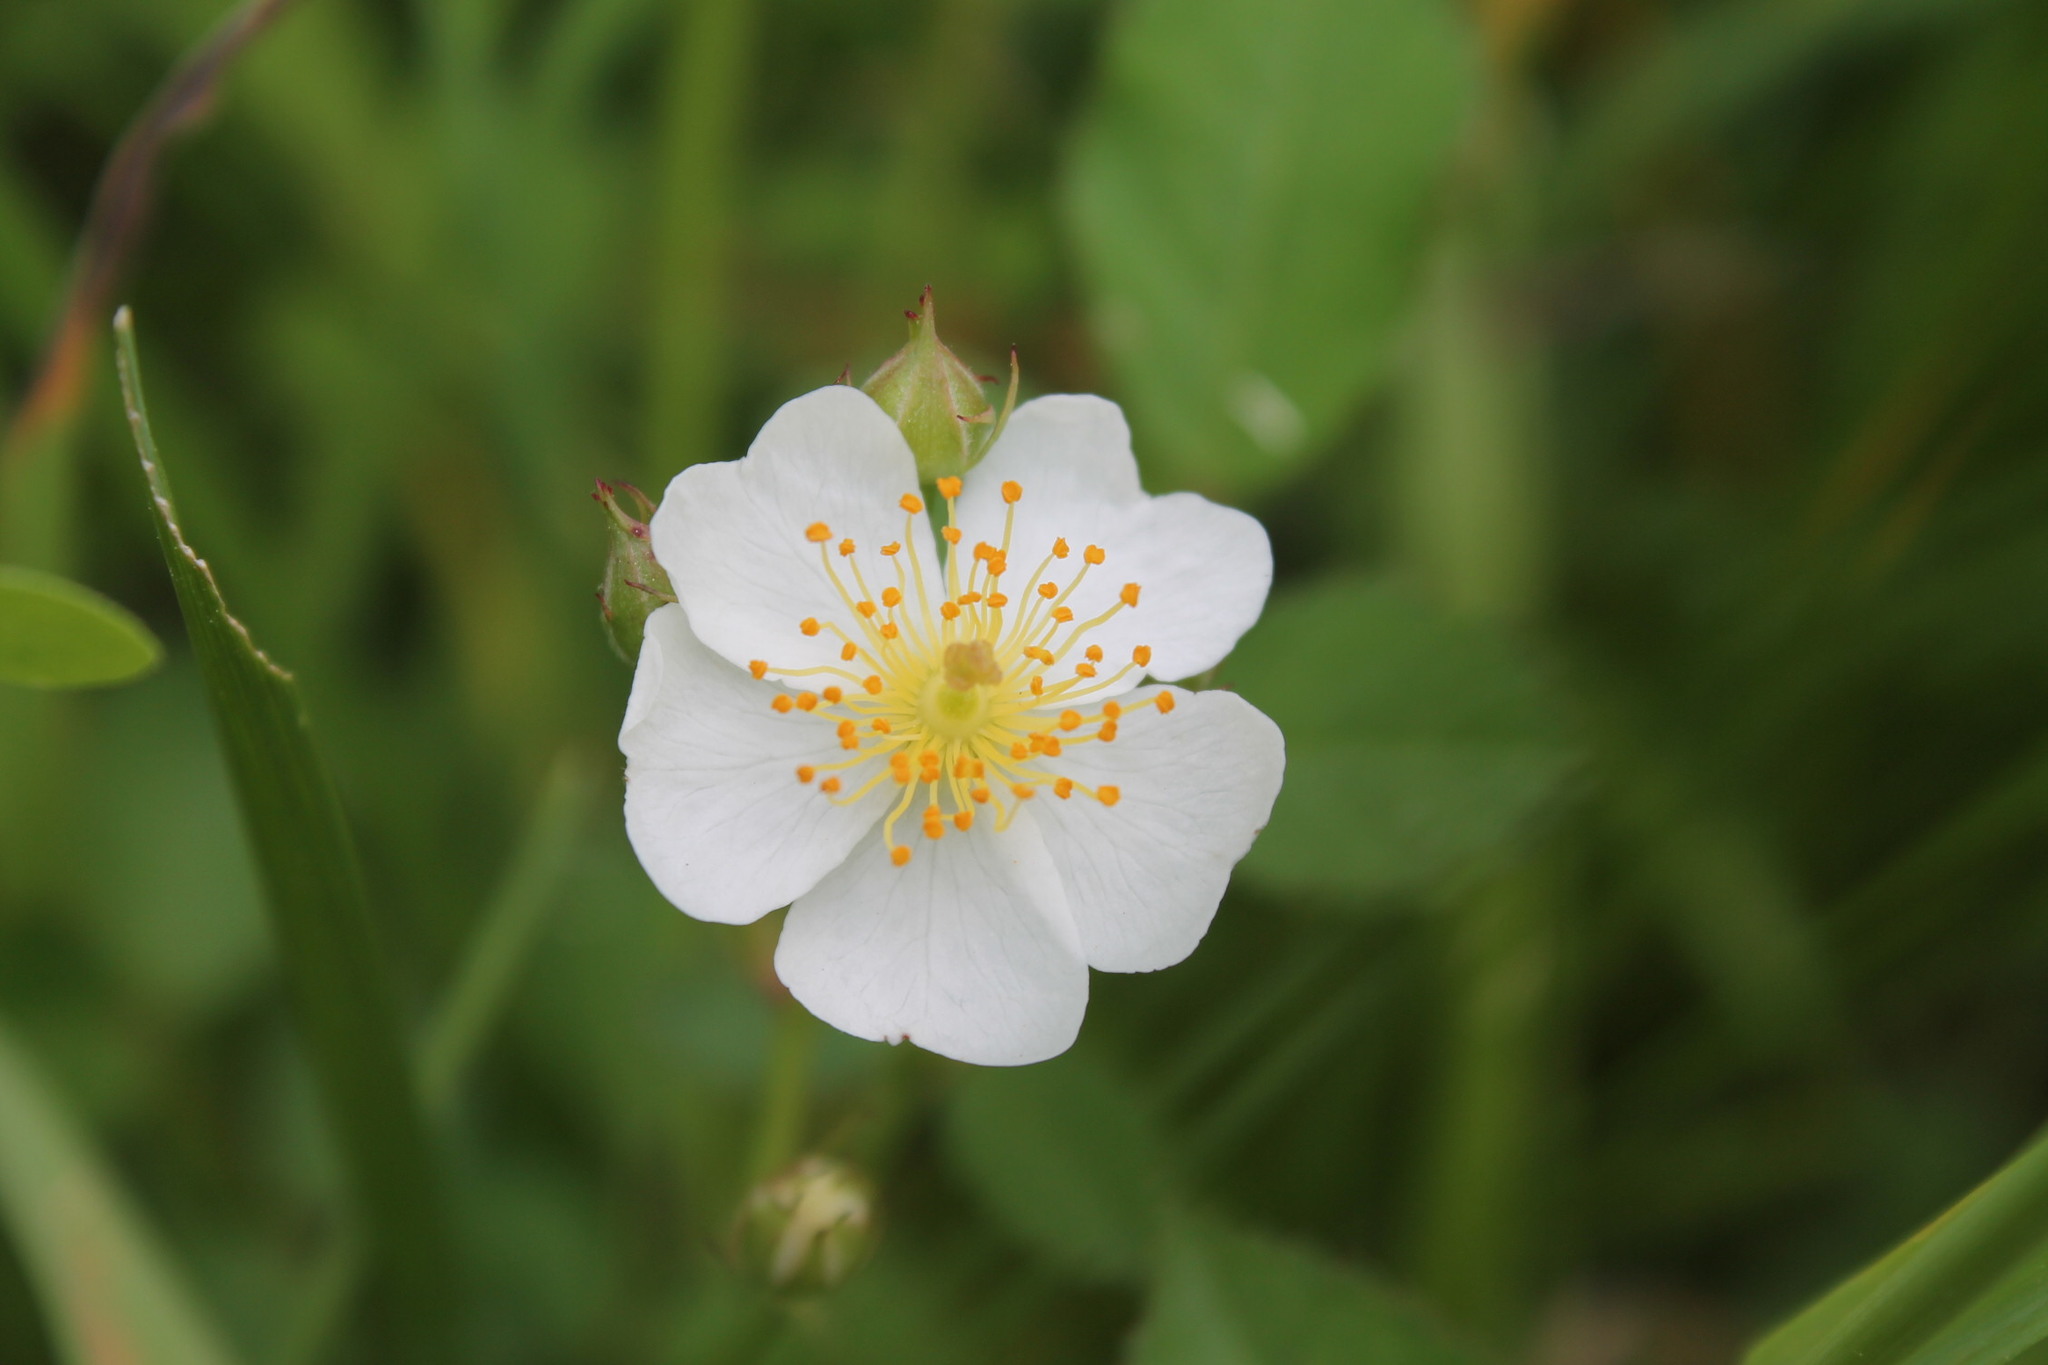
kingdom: Plantae
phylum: Tracheophyta
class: Magnoliopsida
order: Rosales
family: Rosaceae
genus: Rosa
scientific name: Rosa multiflora
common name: Multiflora rose
